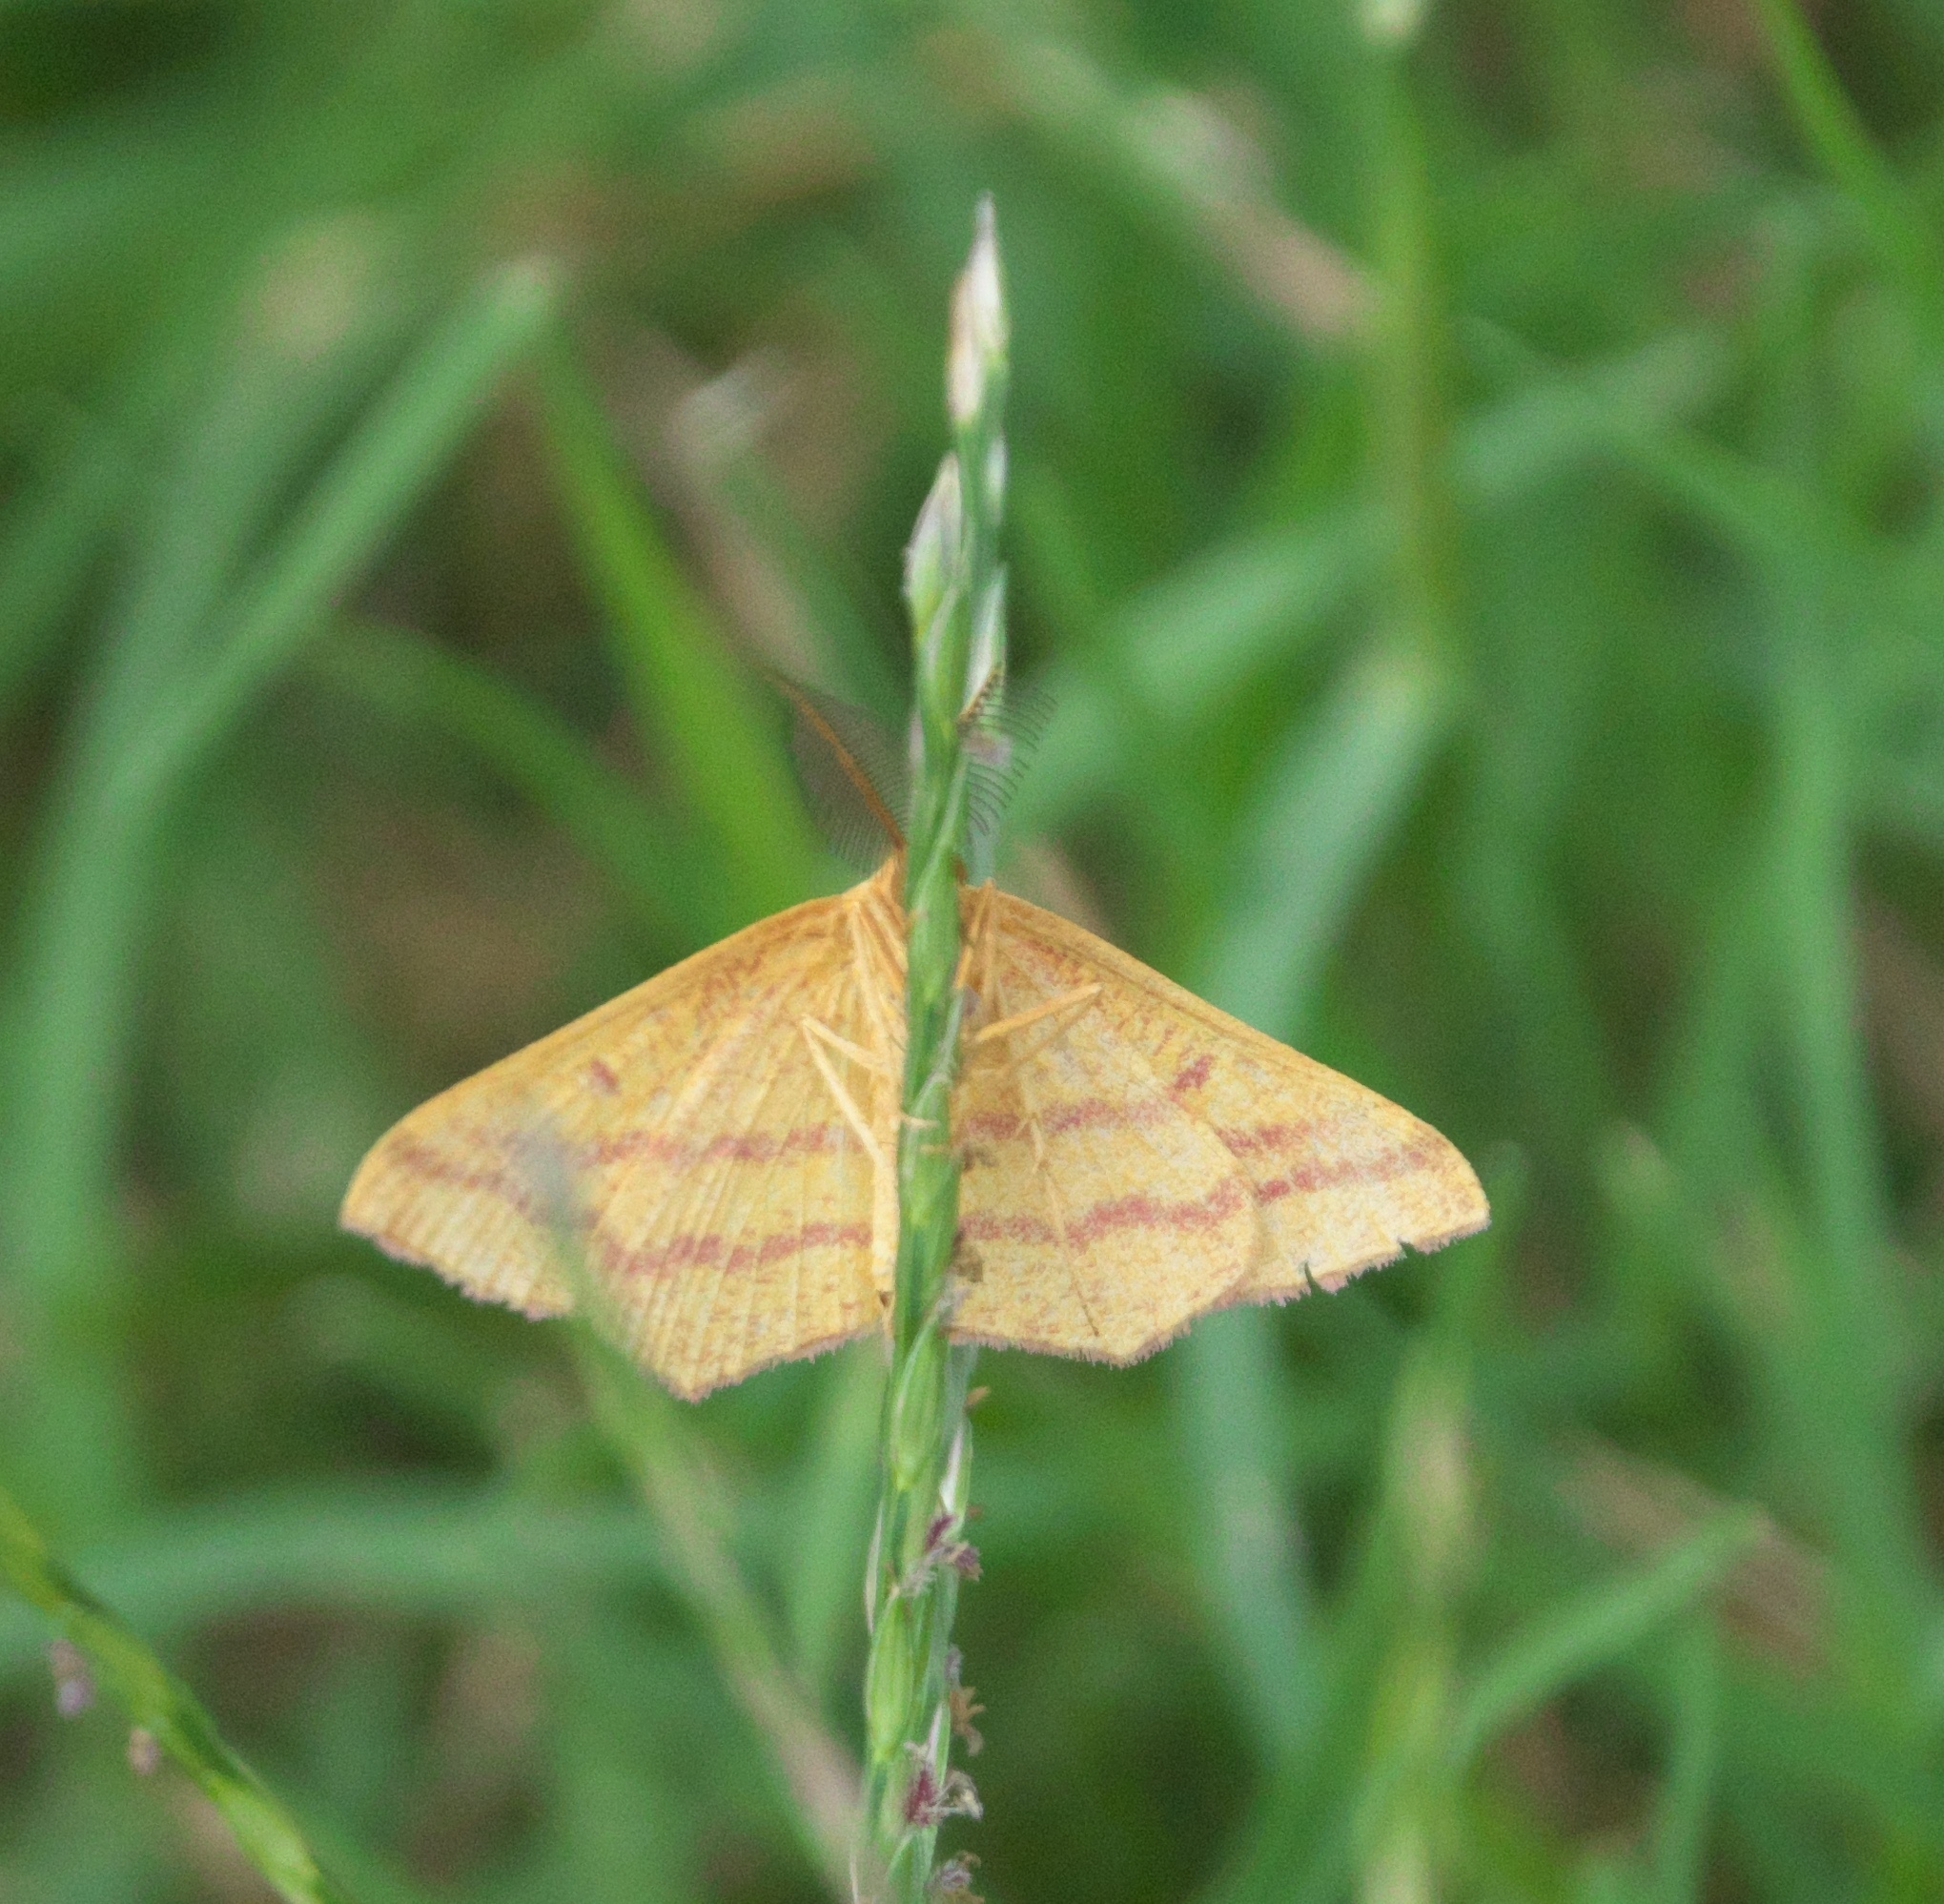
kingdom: Animalia
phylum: Arthropoda
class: Insecta
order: Lepidoptera
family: Geometridae
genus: Haematopis
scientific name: Haematopis grataria
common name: Chickweed geometer
